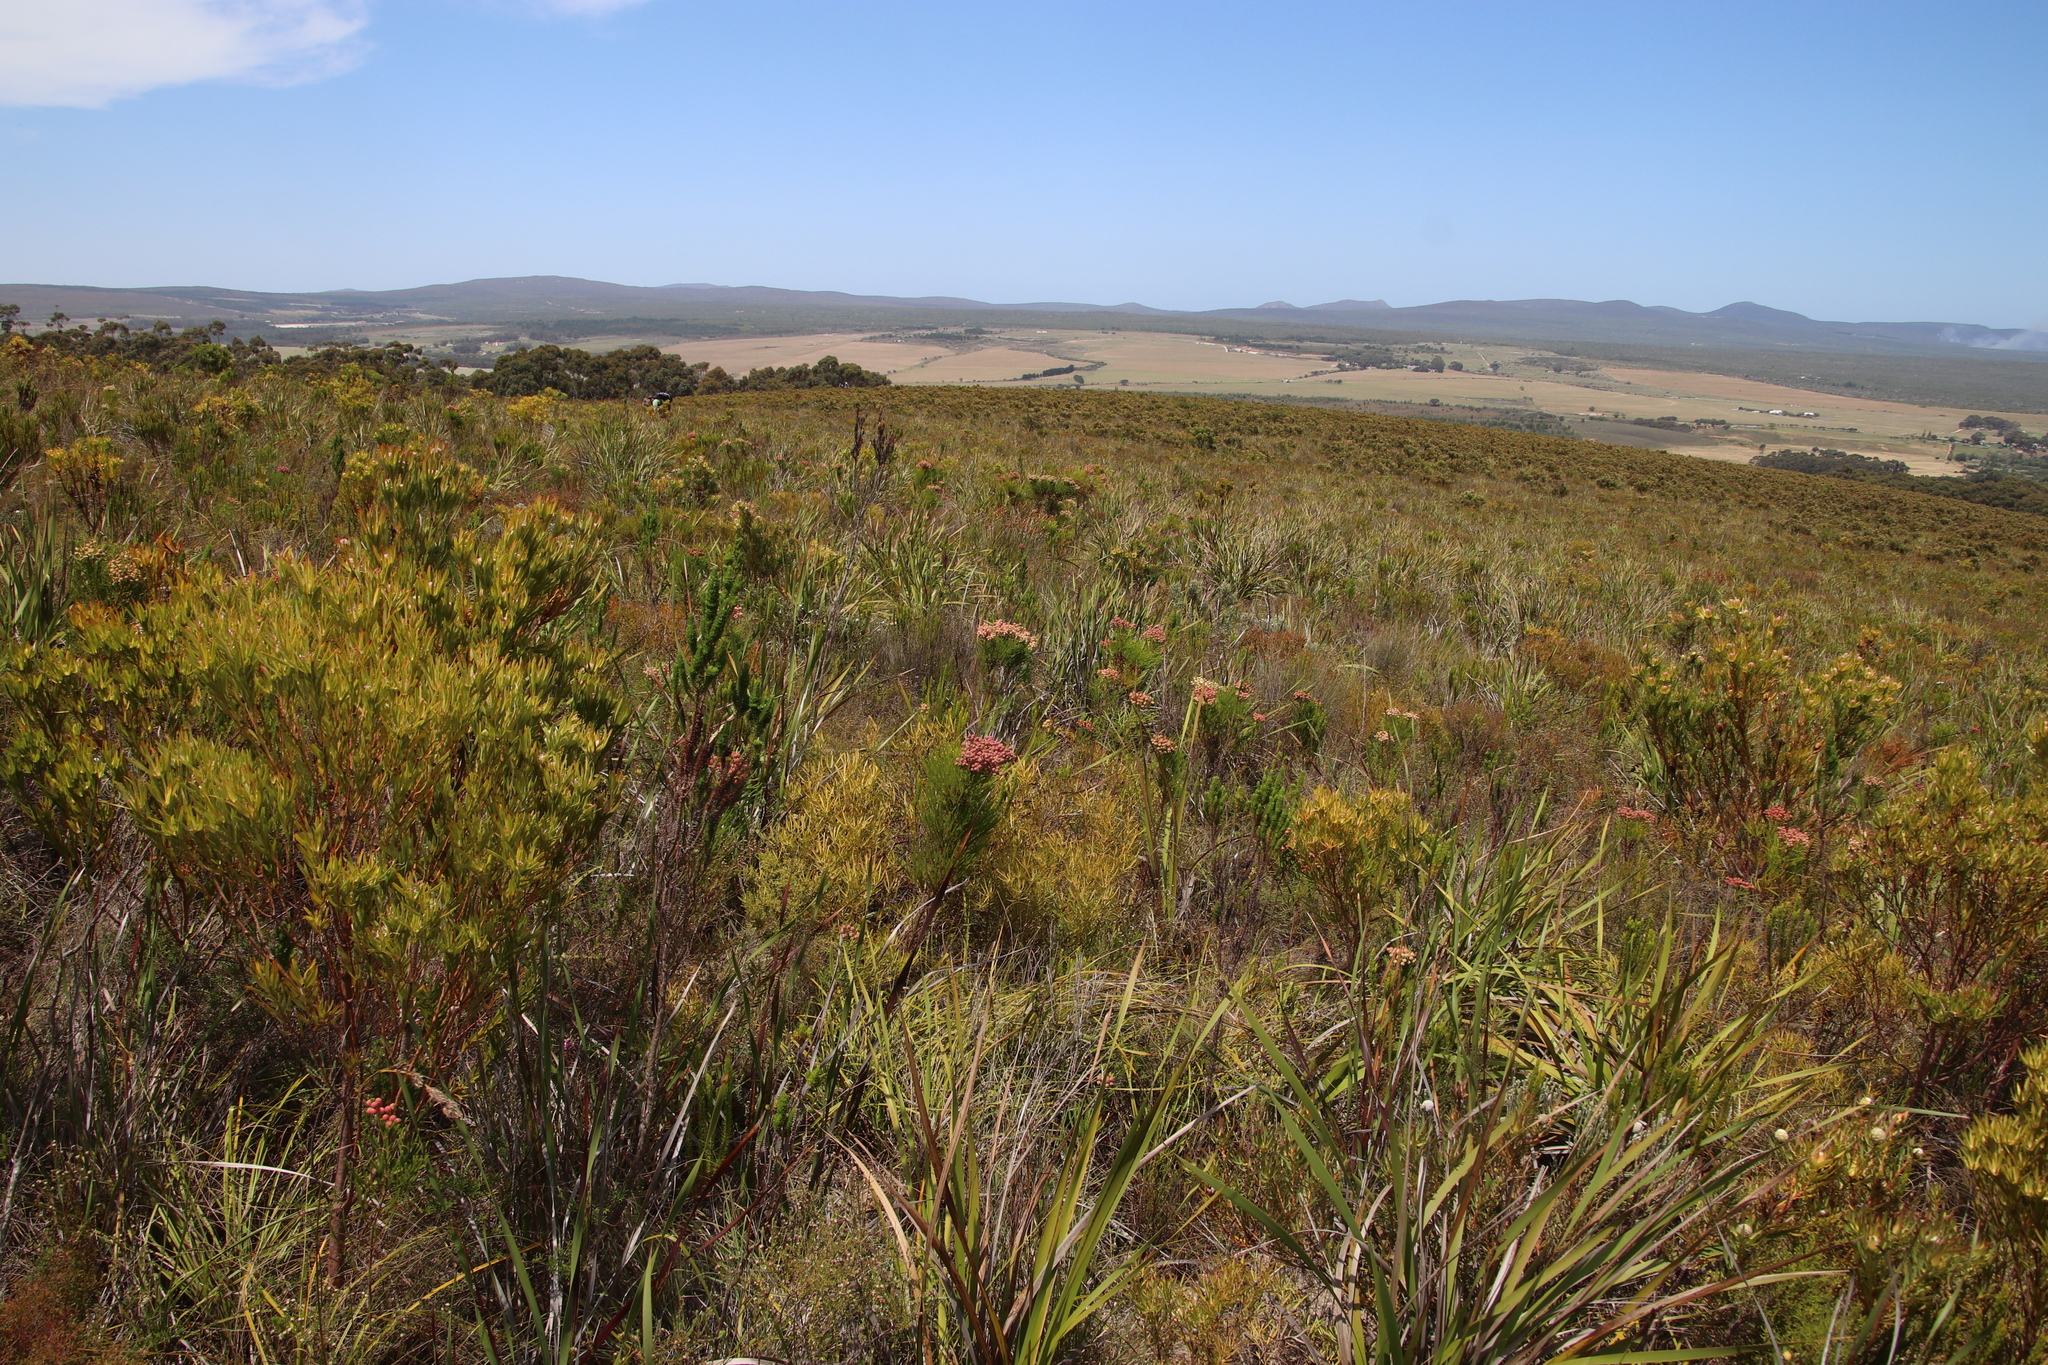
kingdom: Plantae
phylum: Tracheophyta
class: Magnoliopsida
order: Bruniales
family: Bruniaceae
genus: Berzelia
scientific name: Berzelia lanuginosa
